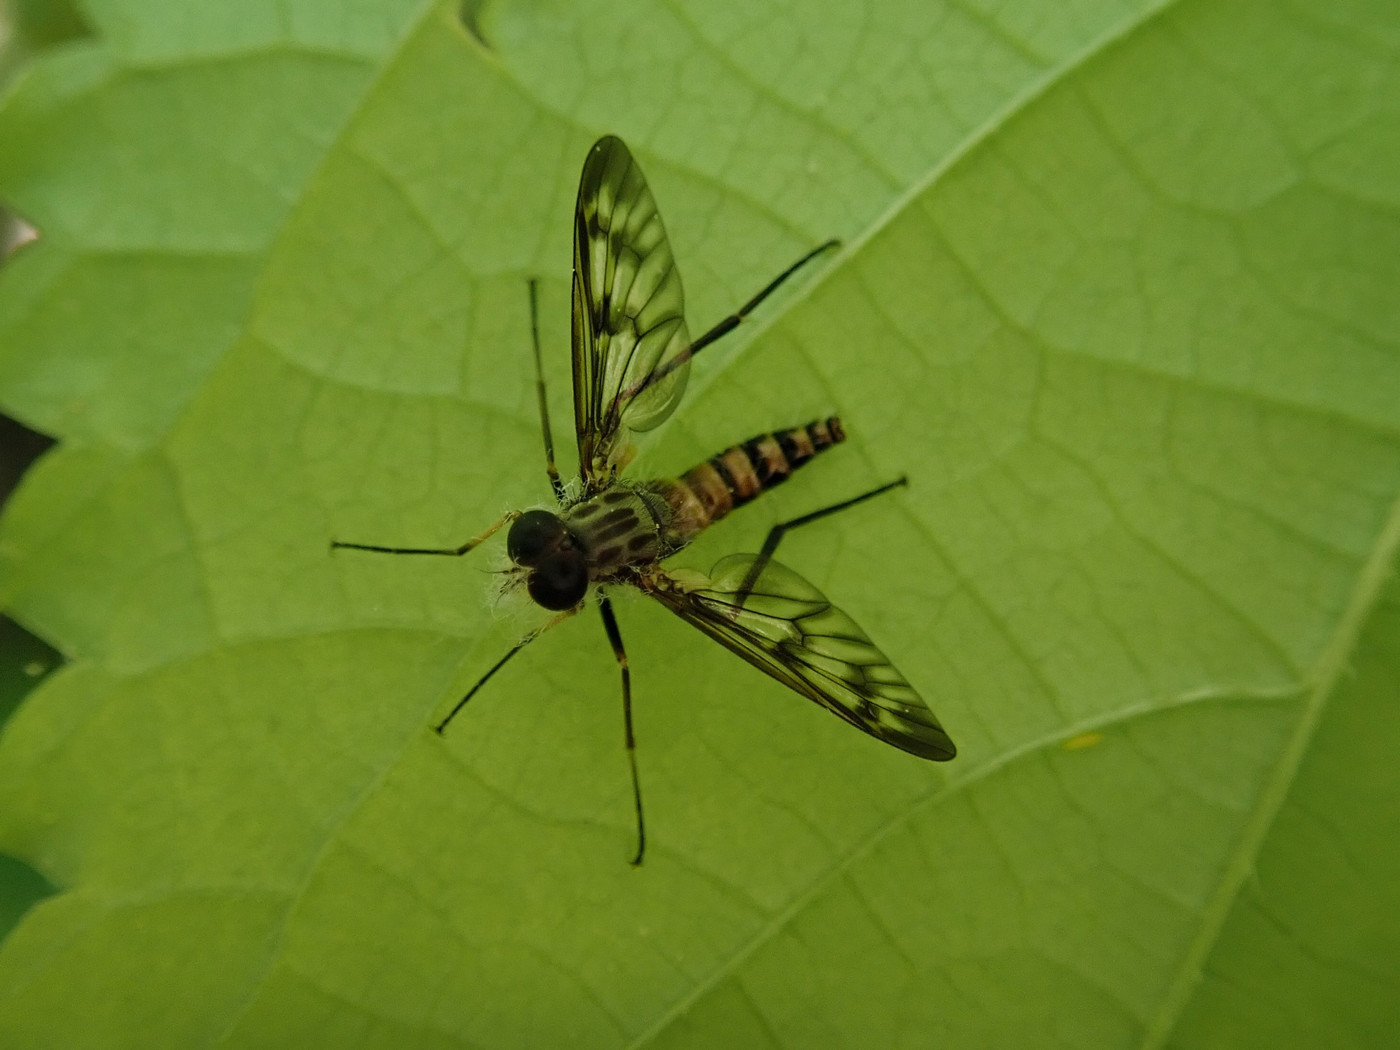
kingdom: Animalia
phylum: Arthropoda
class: Insecta
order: Diptera
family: Rhagionidae
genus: Rhagio
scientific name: Rhagio mystaceus
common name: Common snipe fly
